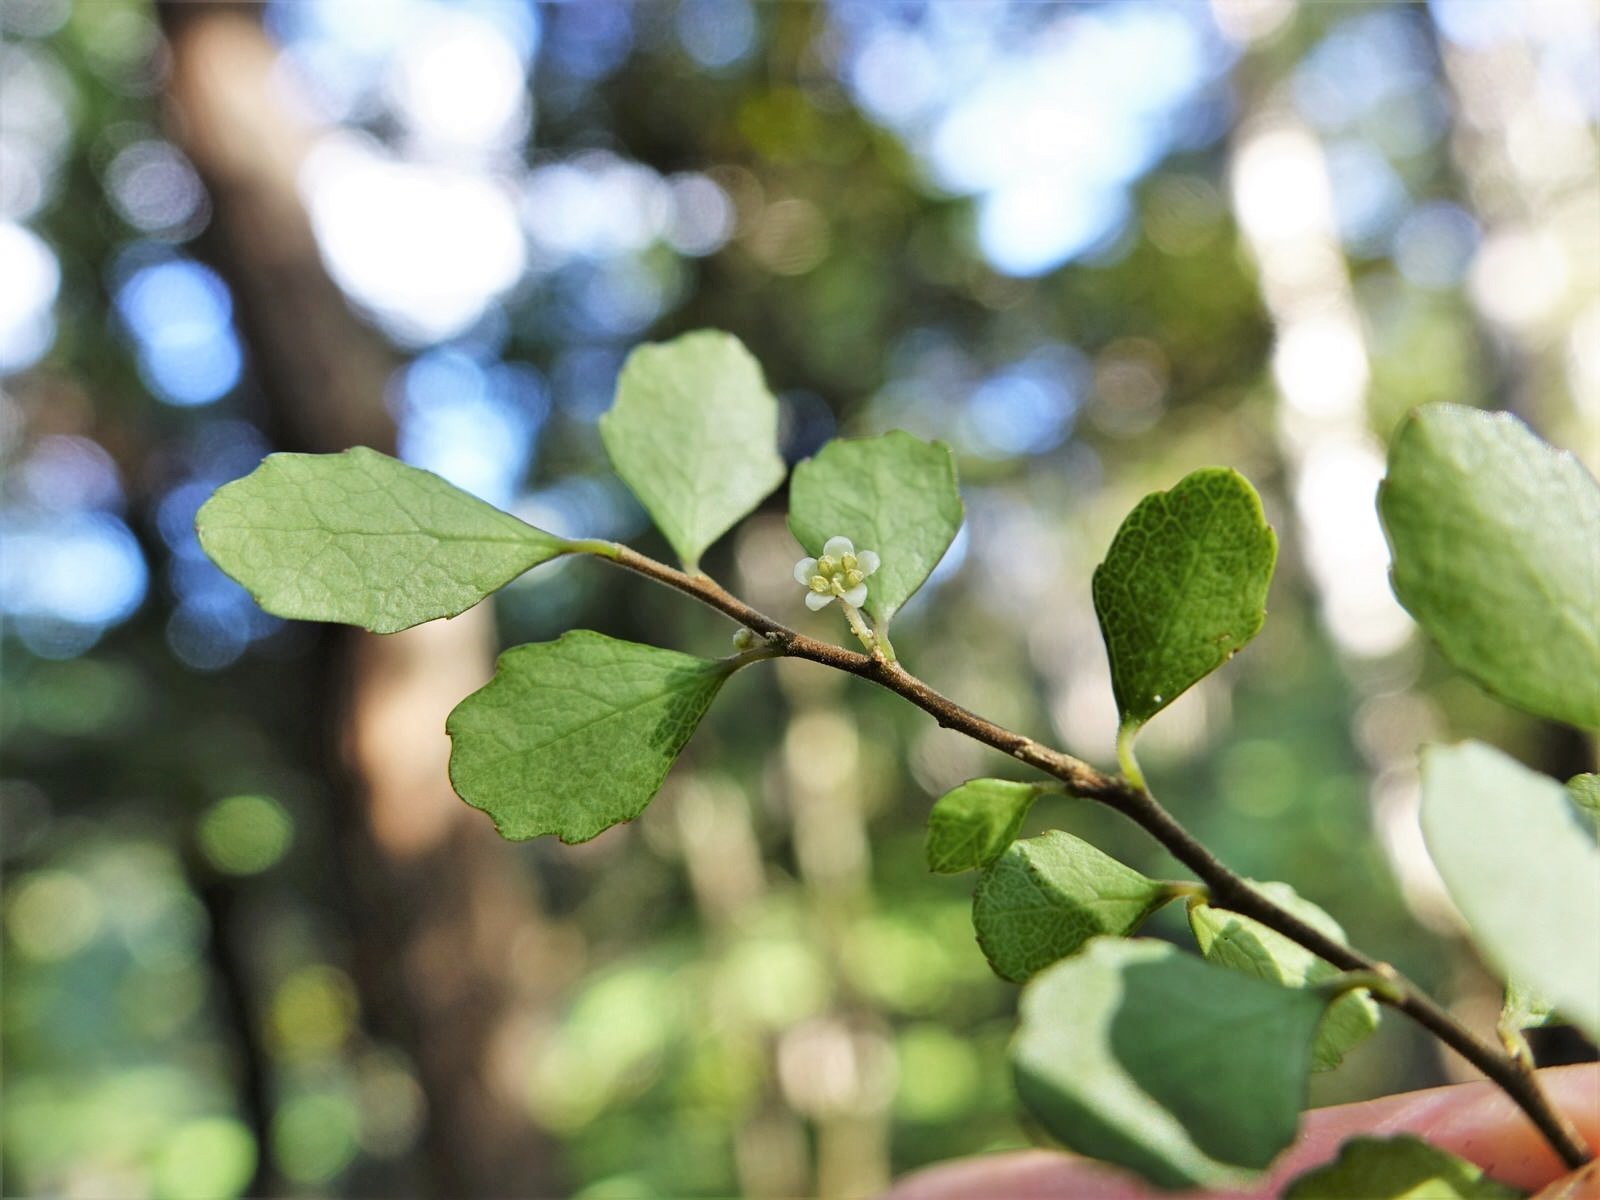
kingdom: Plantae
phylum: Tracheophyta
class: Magnoliopsida
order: Malpighiales
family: Violaceae
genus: Melicytus
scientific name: Melicytus micranthus
